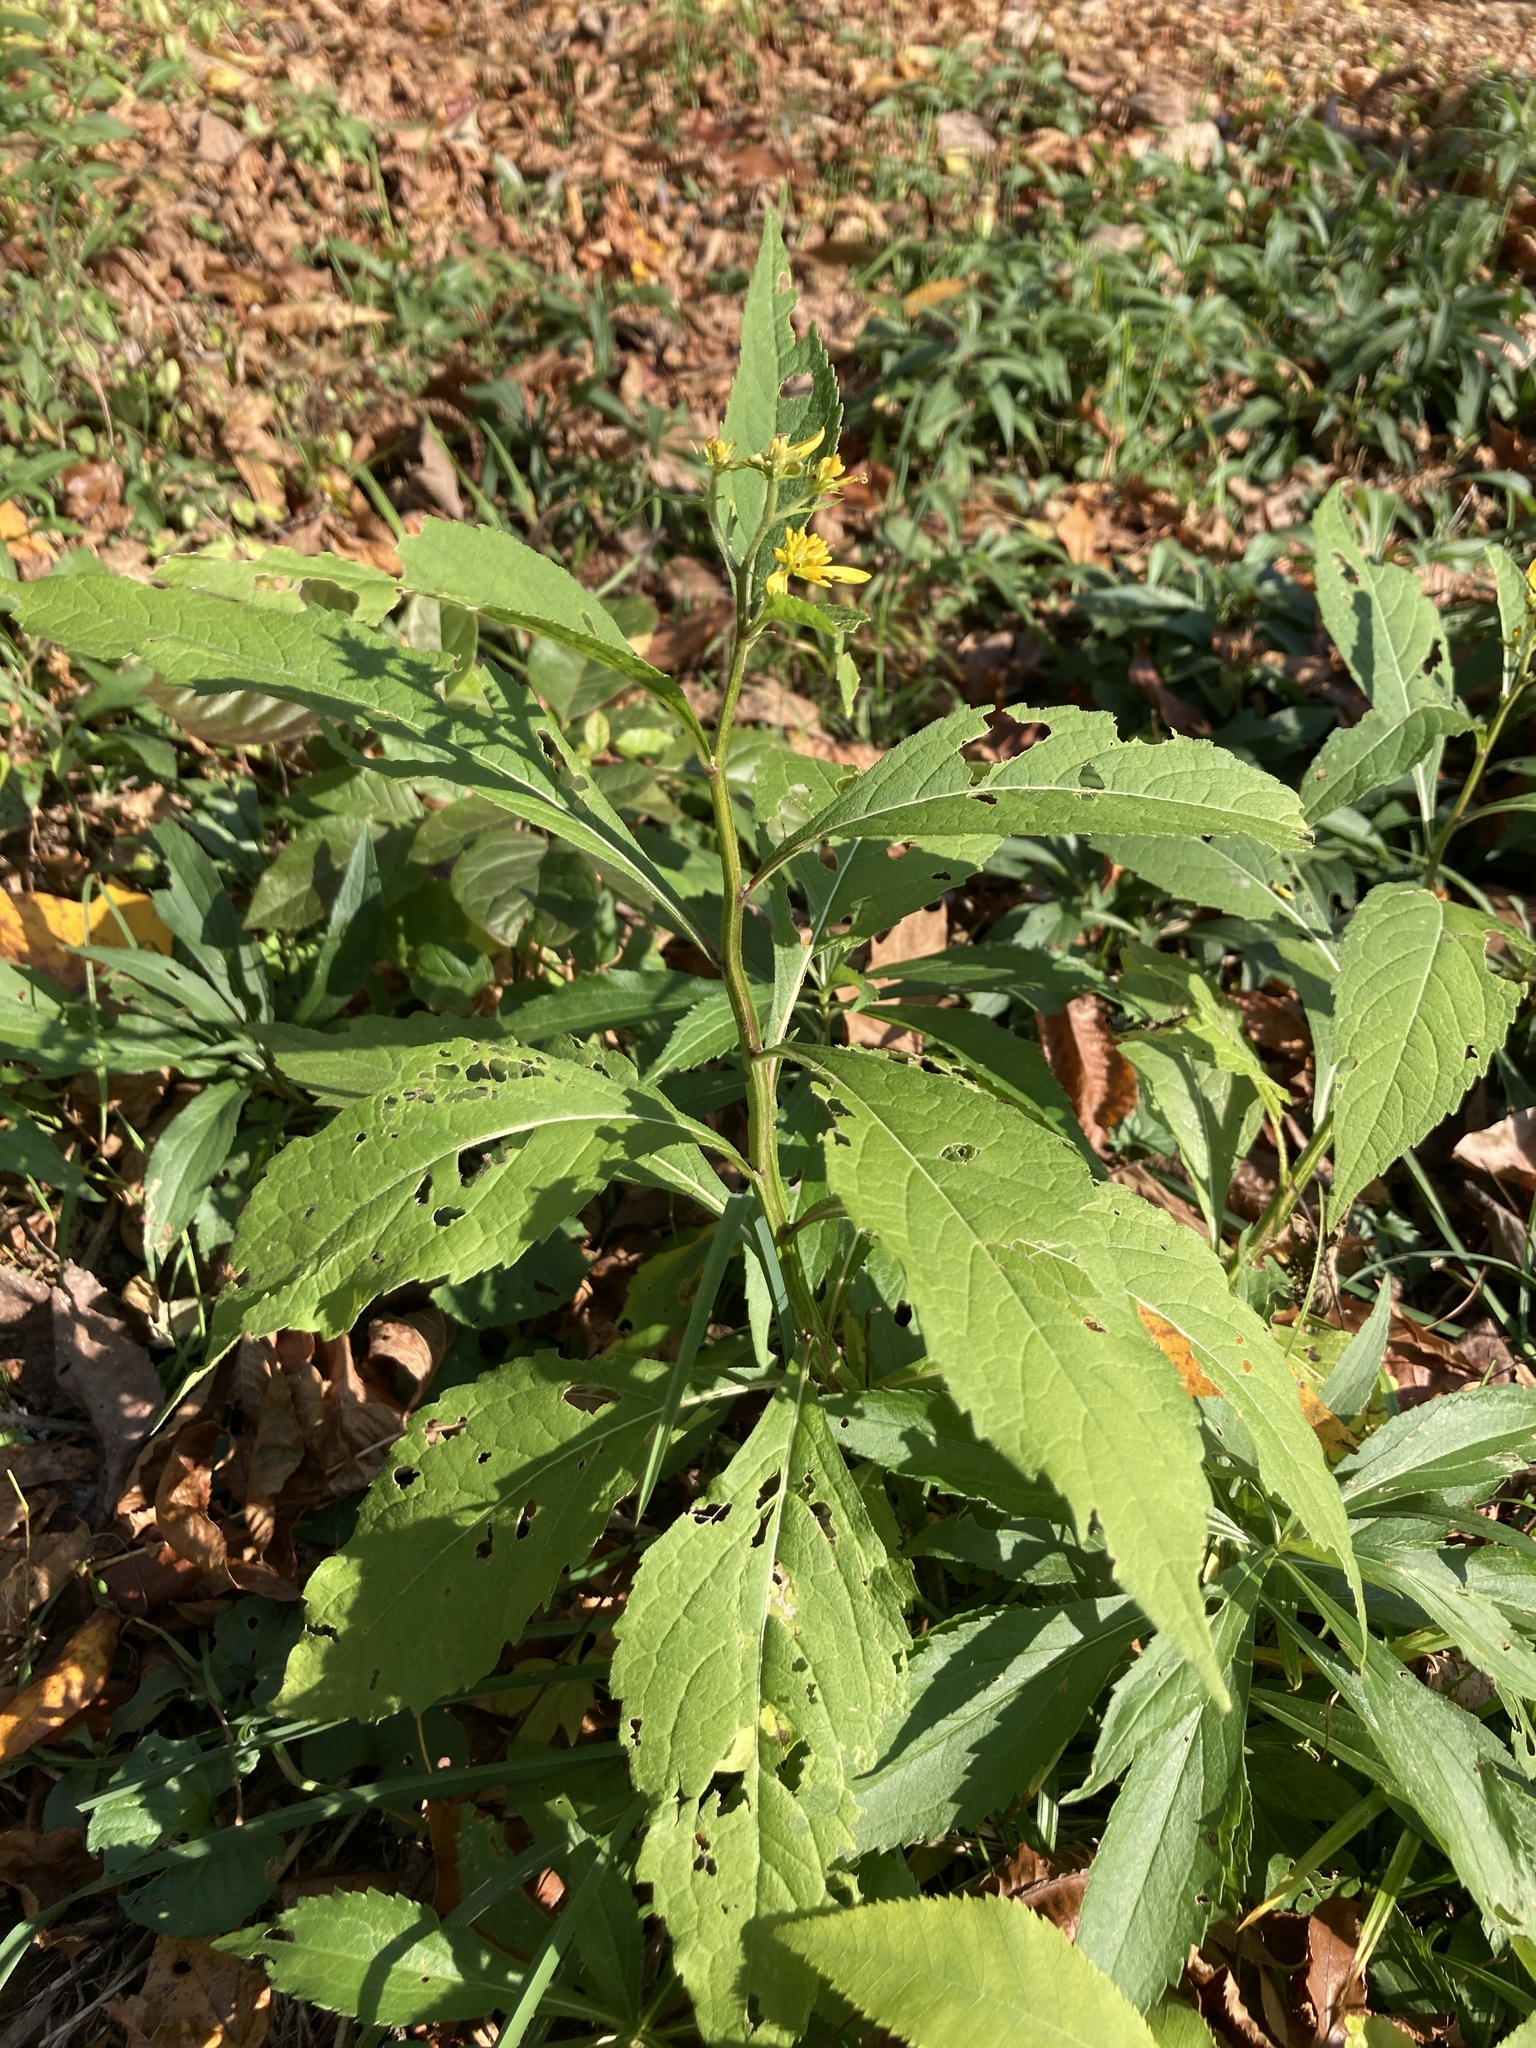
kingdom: Plantae
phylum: Tracheophyta
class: Magnoliopsida
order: Asterales
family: Asteraceae
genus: Verbesina
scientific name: Verbesina alternifolia
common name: Wingstem
